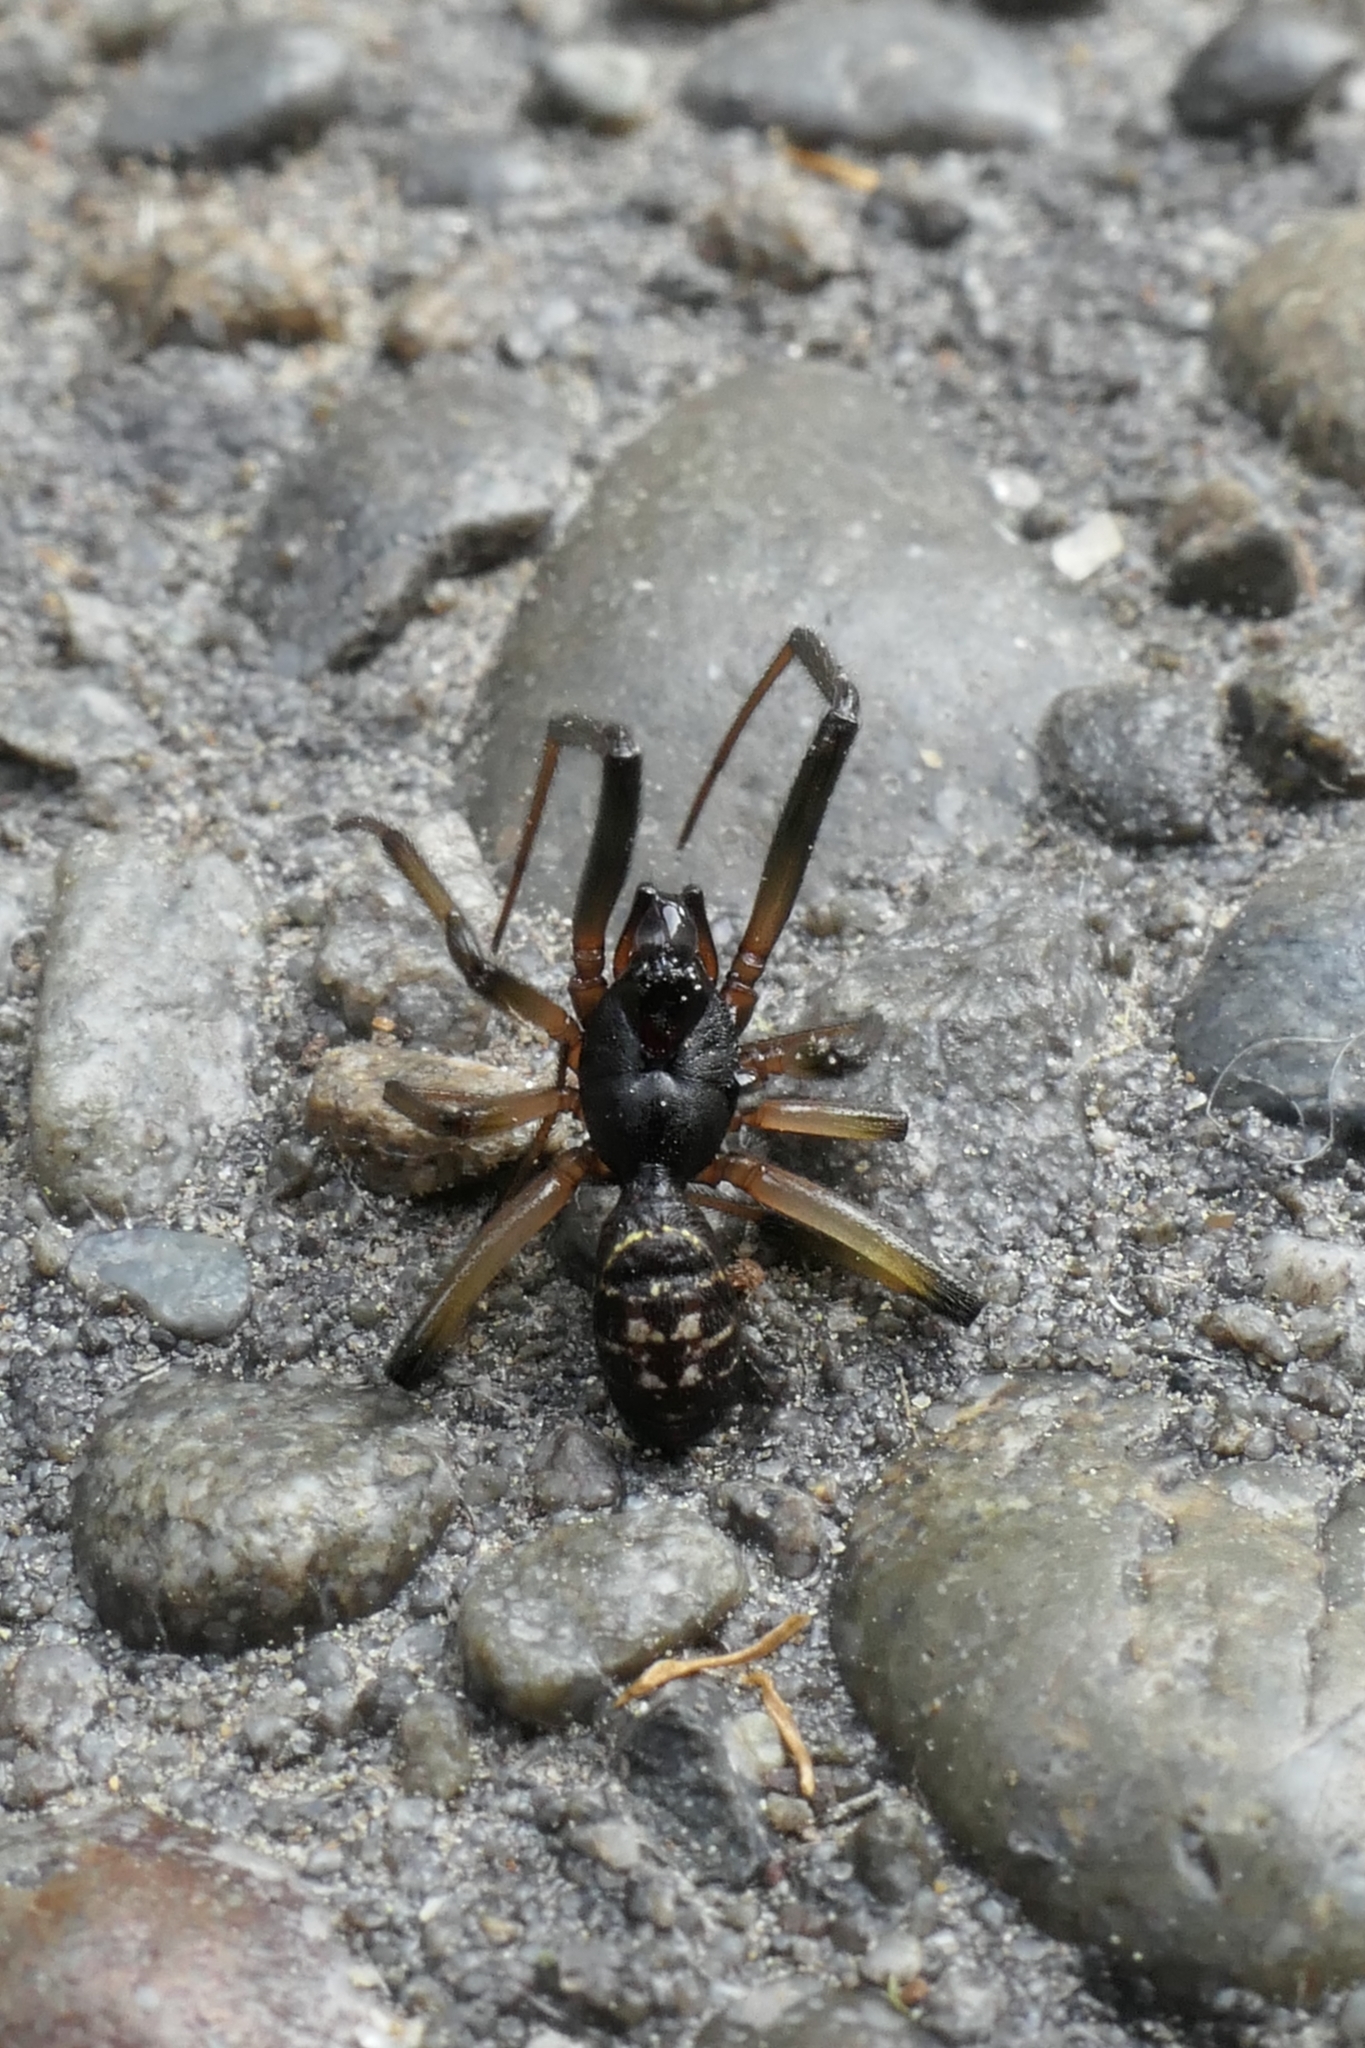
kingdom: Animalia
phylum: Arthropoda
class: Arachnida
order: Araneae
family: Theridiidae
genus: Steatoda
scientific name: Steatoda capensis
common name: Cobweb weaver
